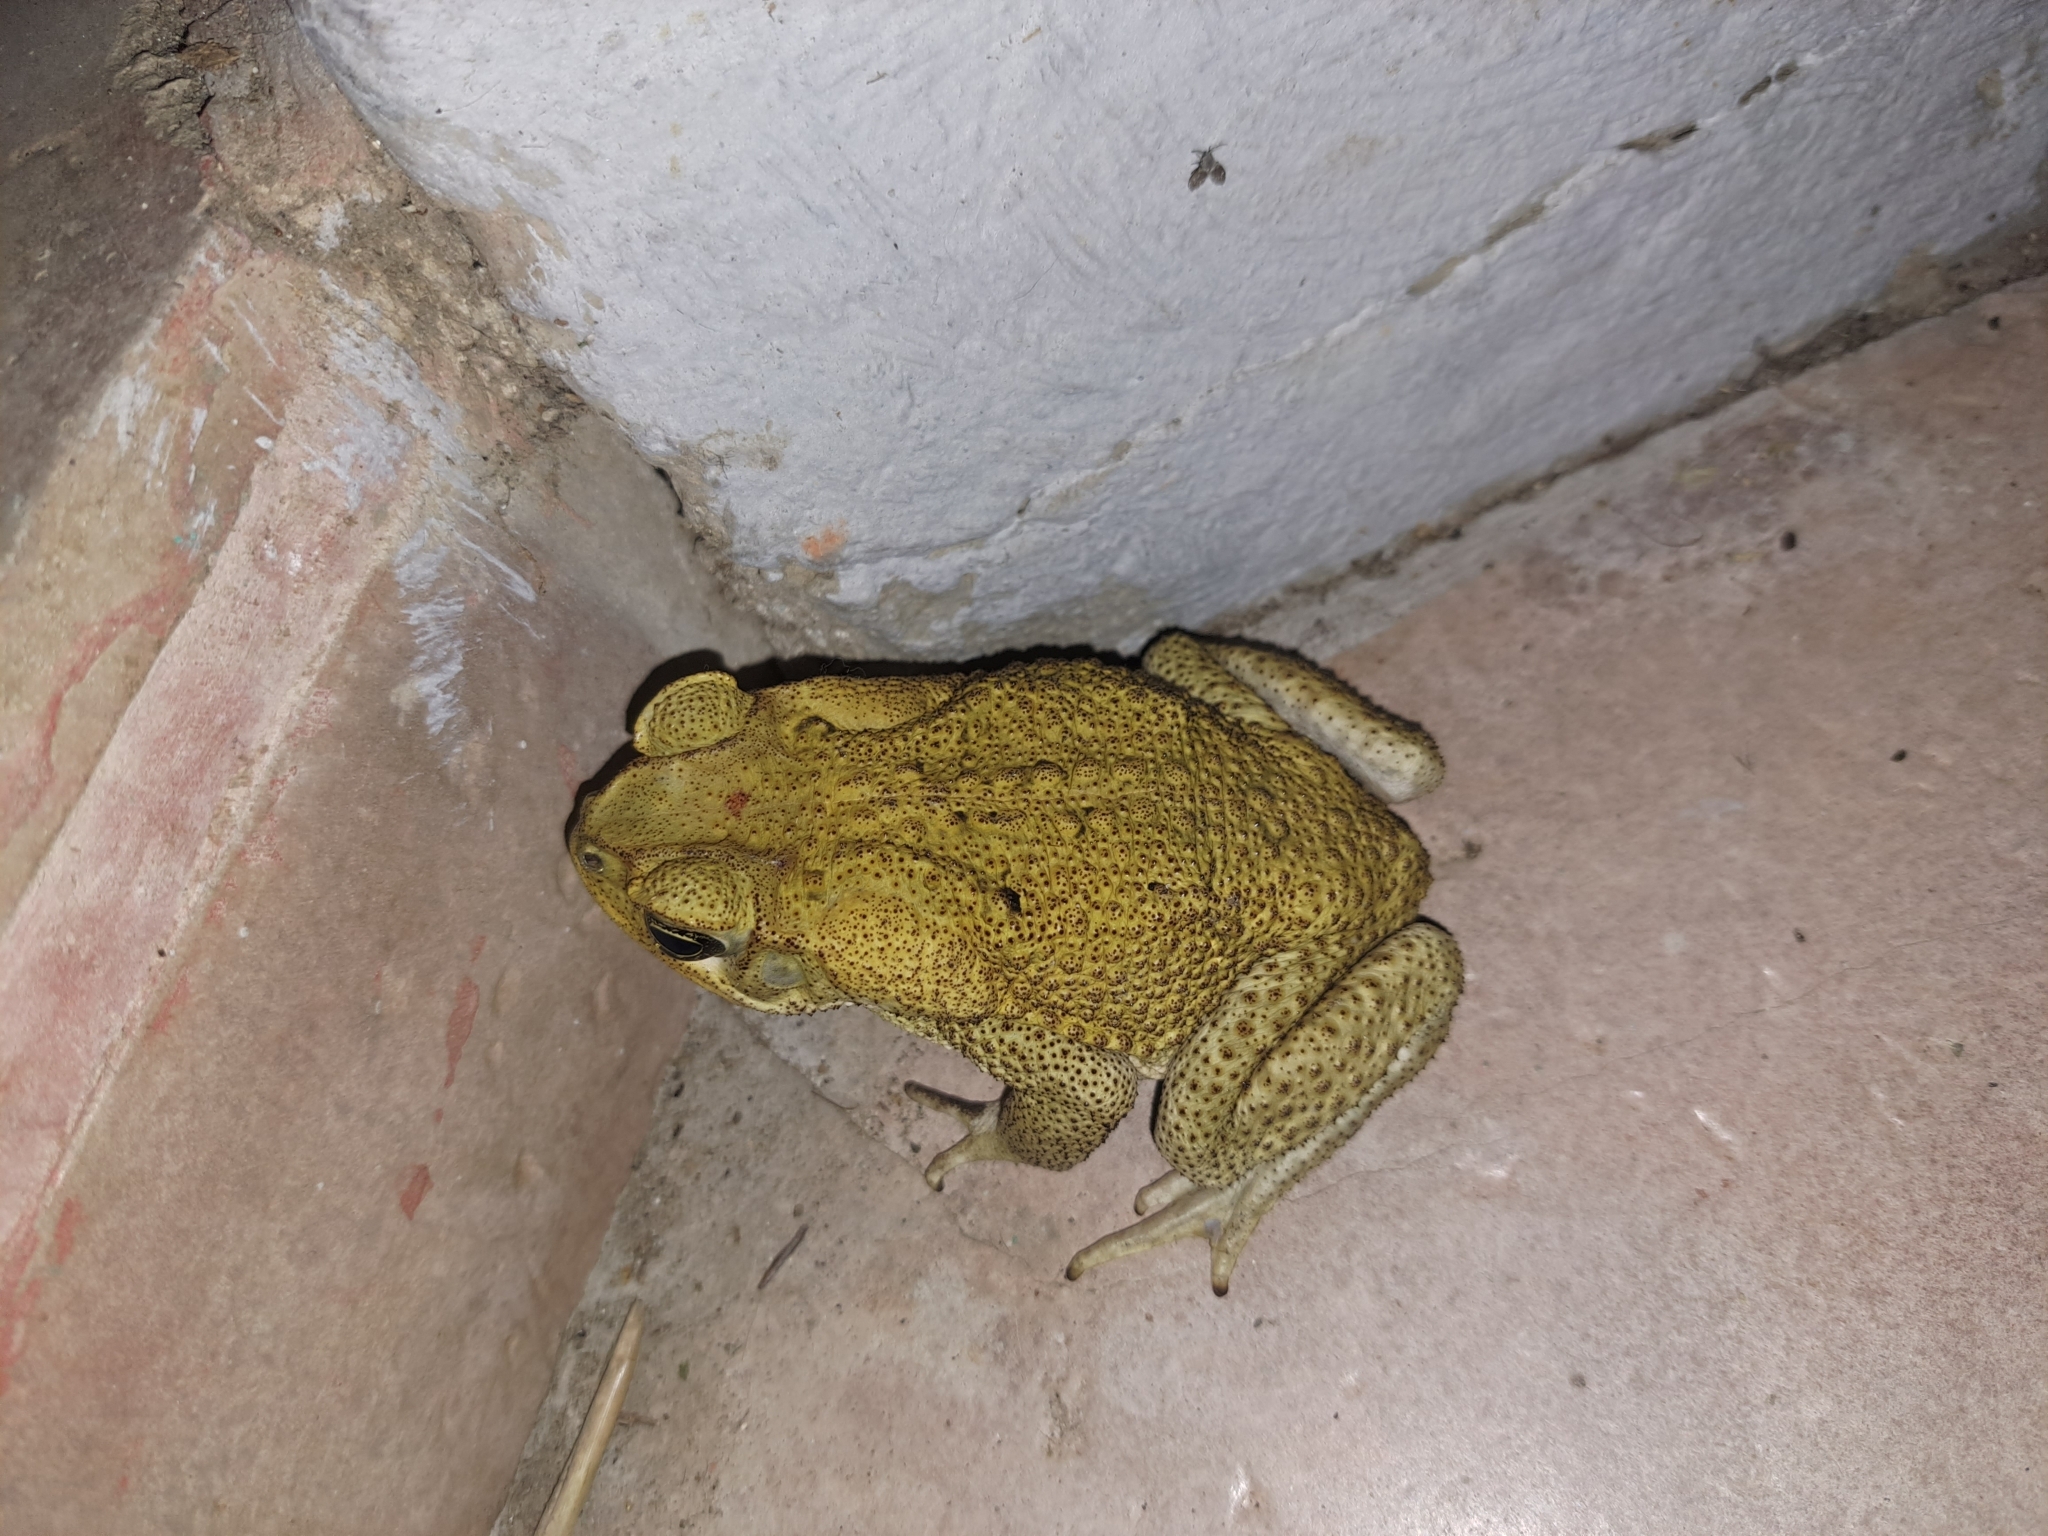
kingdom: Animalia
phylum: Chordata
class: Amphibia
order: Anura
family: Bufonidae
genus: Rhinella
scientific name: Rhinella
